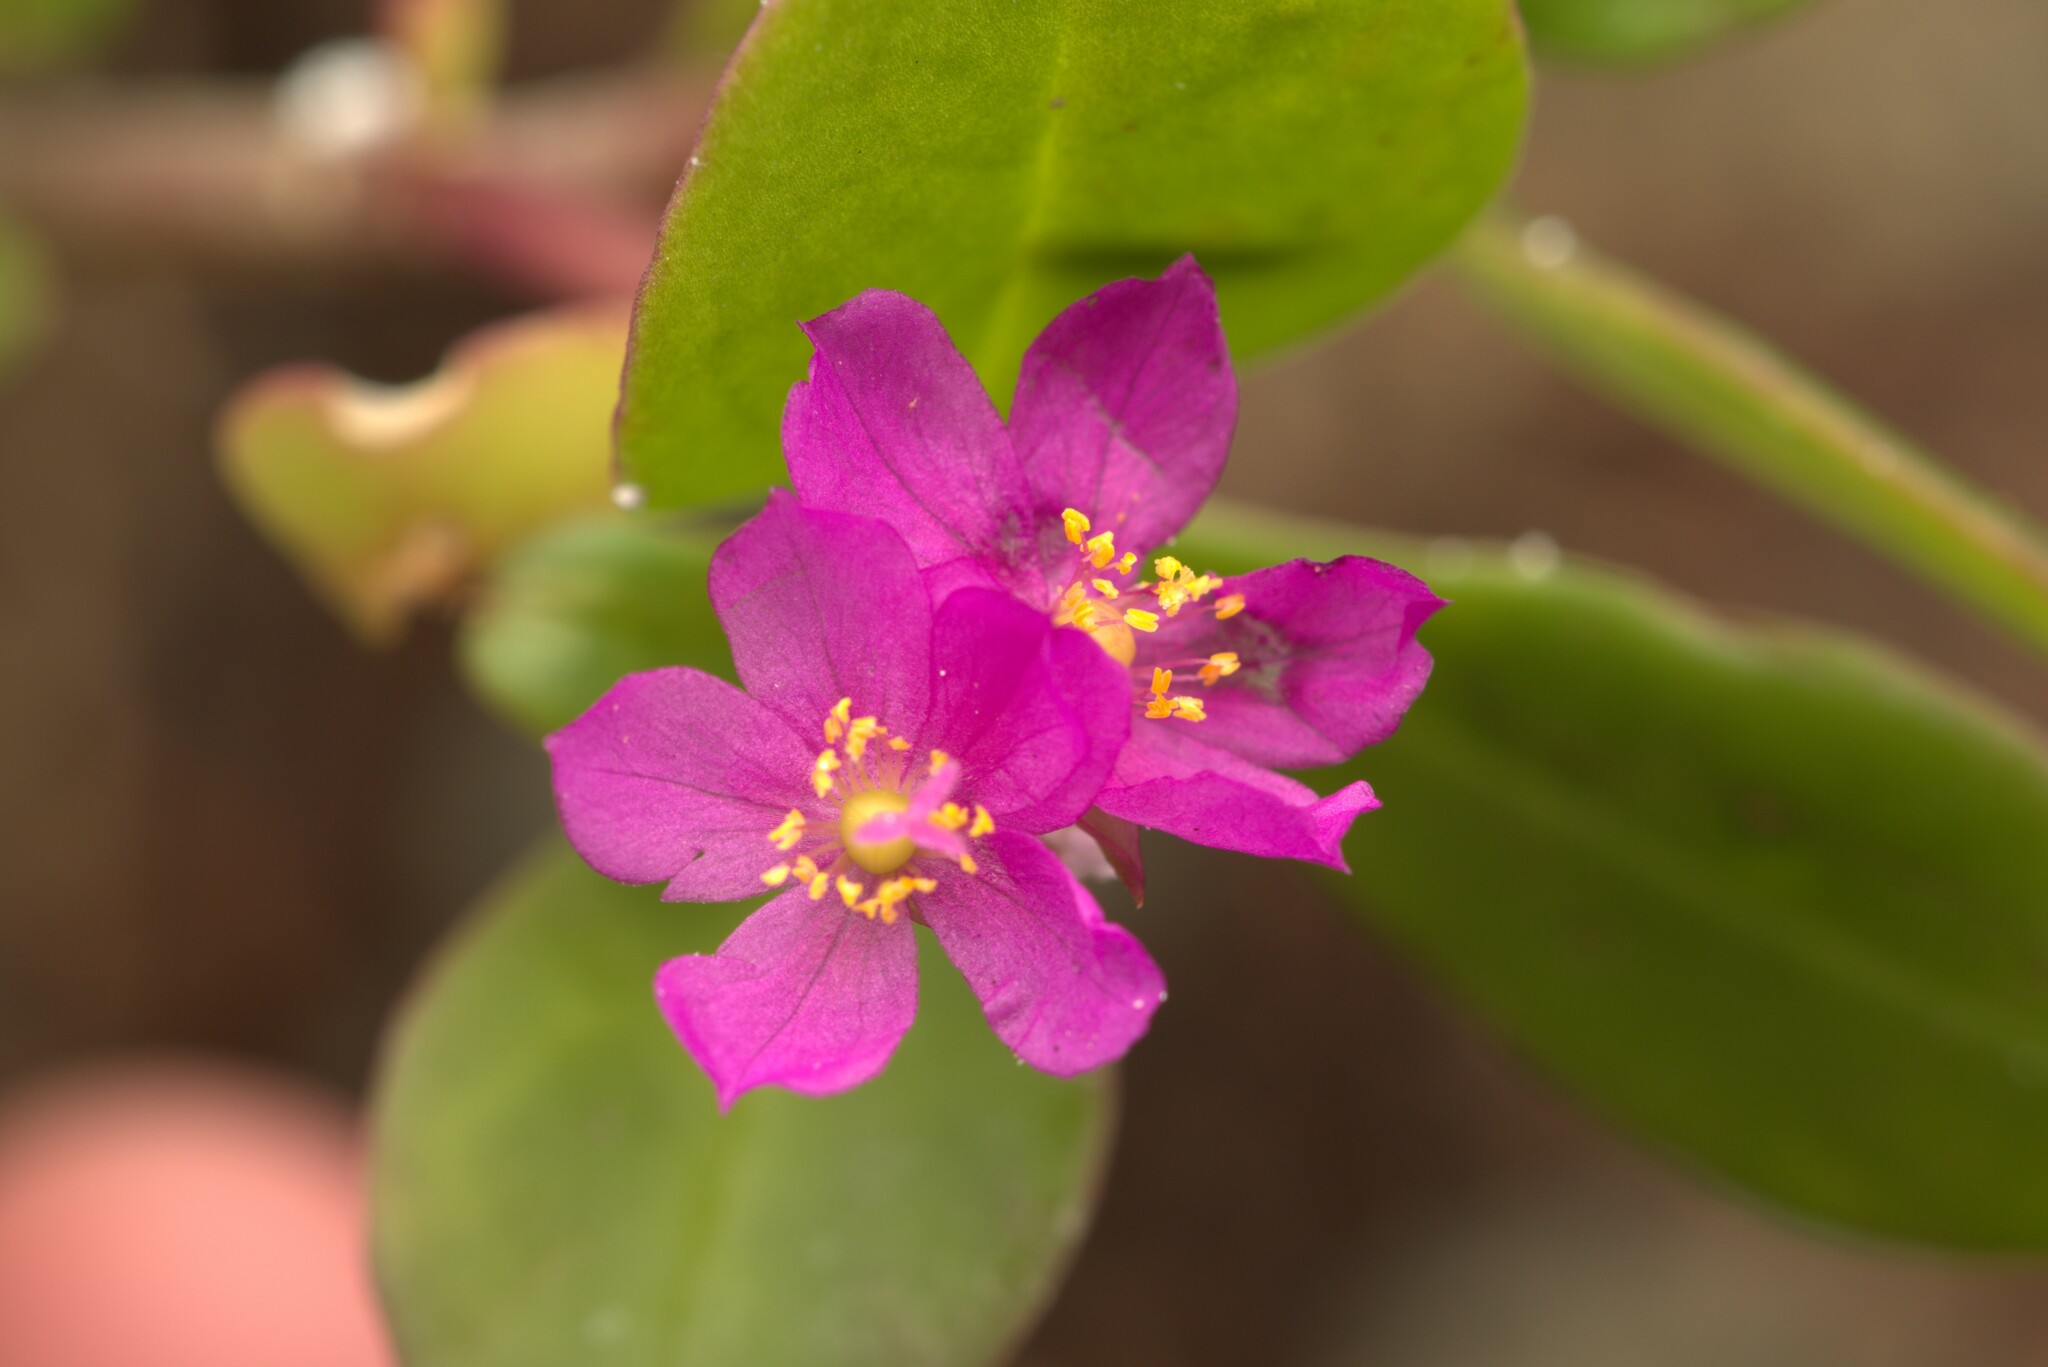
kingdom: Plantae
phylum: Tracheophyta
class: Magnoliopsida
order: Caryophyllales
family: Talinaceae
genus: Talinum
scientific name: Talinum fruticosum
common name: Verdolaga-francesa
